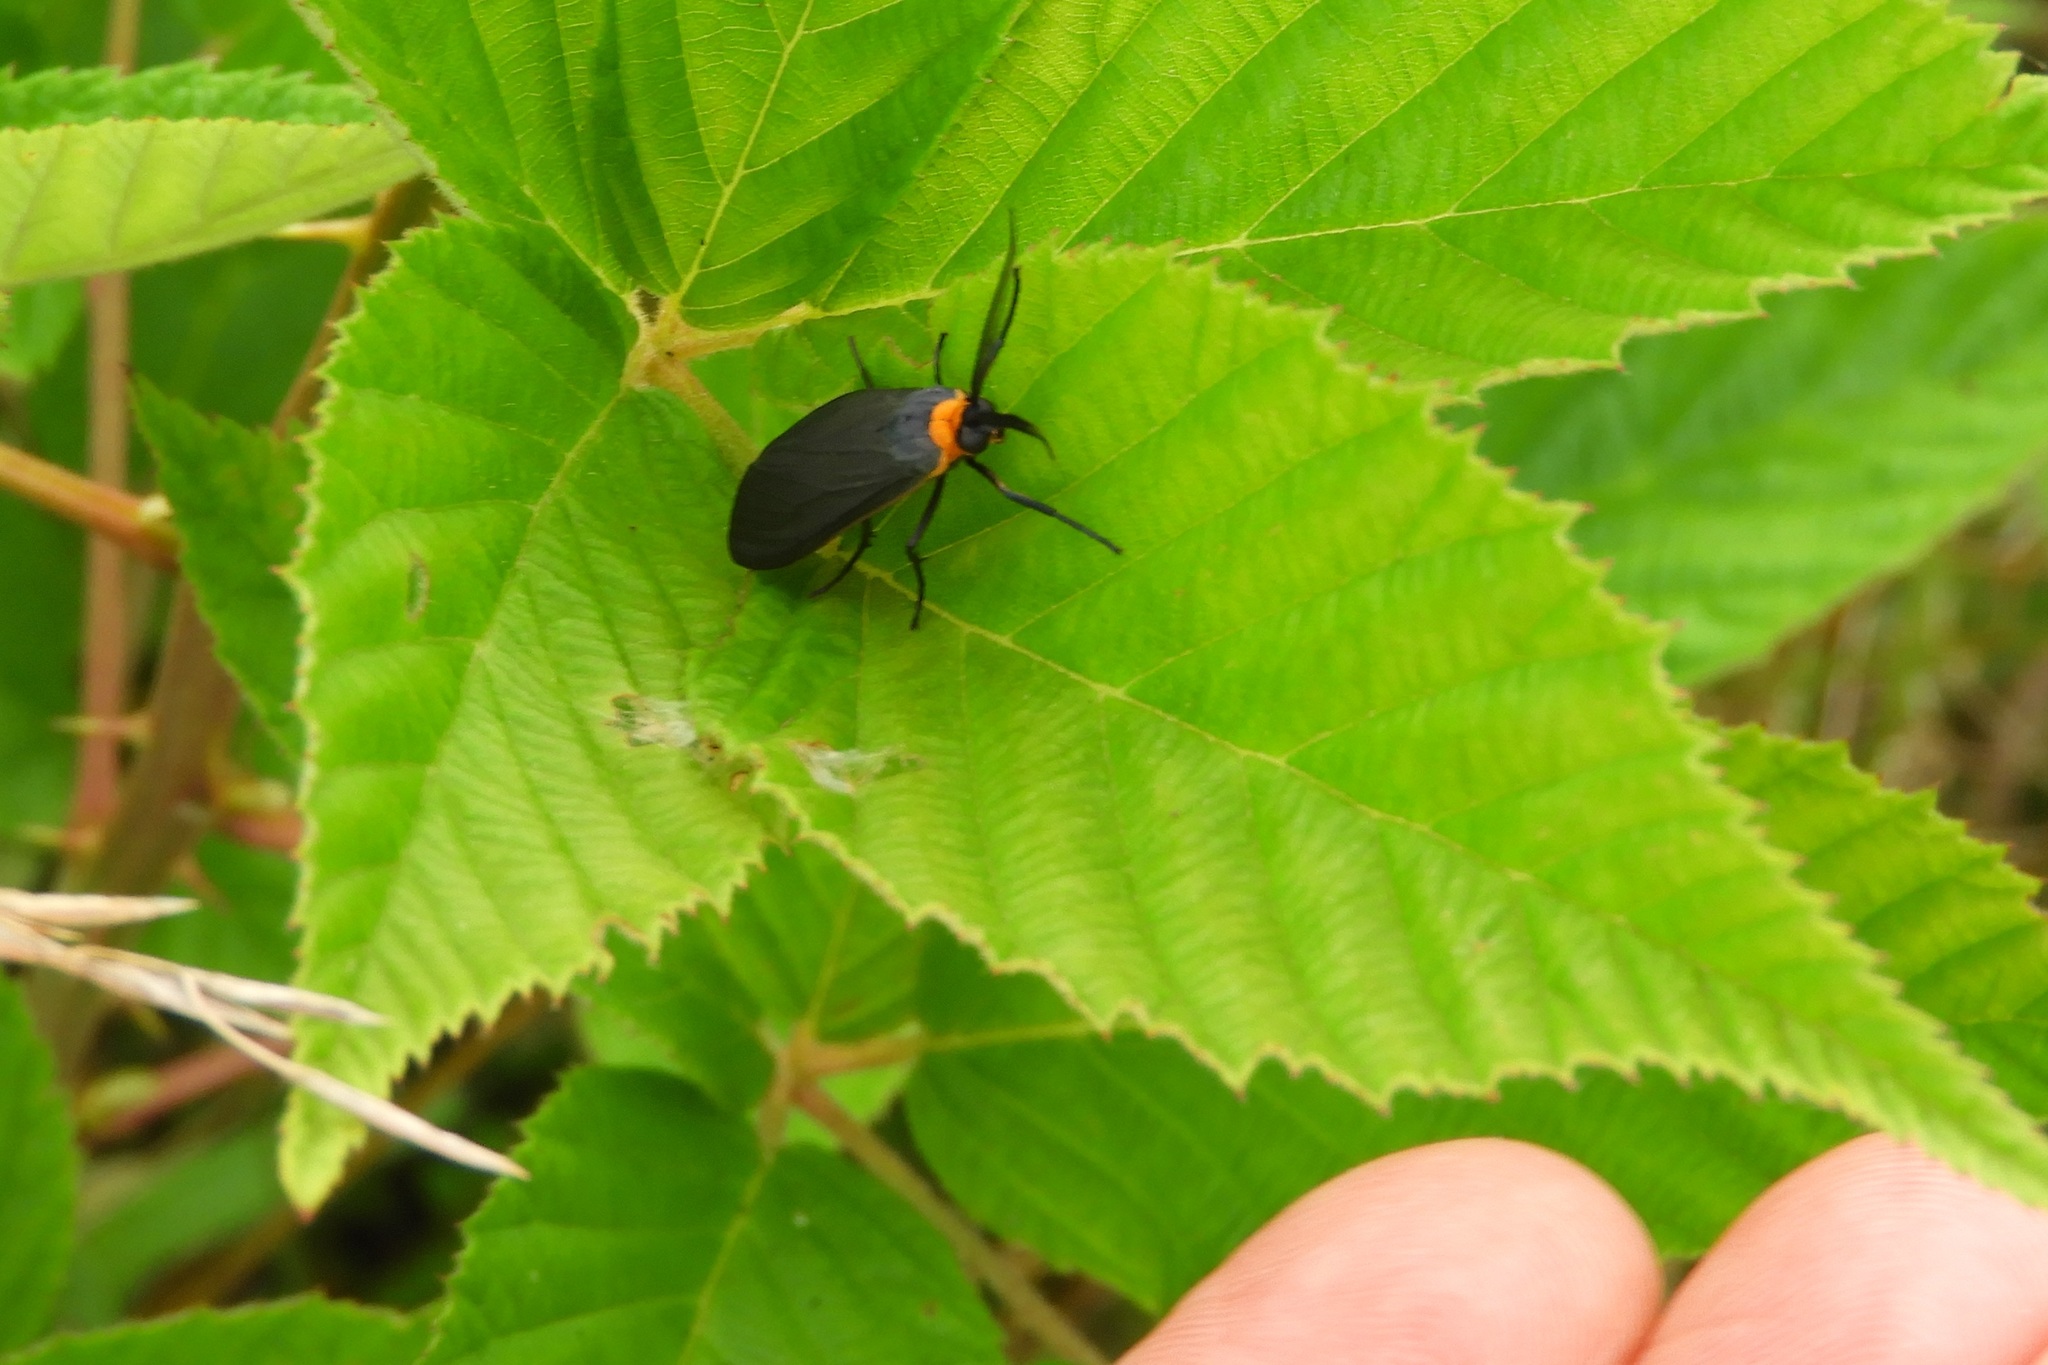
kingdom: Animalia
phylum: Arthropoda
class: Insecta
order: Lepidoptera
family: Erebidae
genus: Cisseps
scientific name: Cisseps fulvicollis
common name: Yellow-collared scape moth
